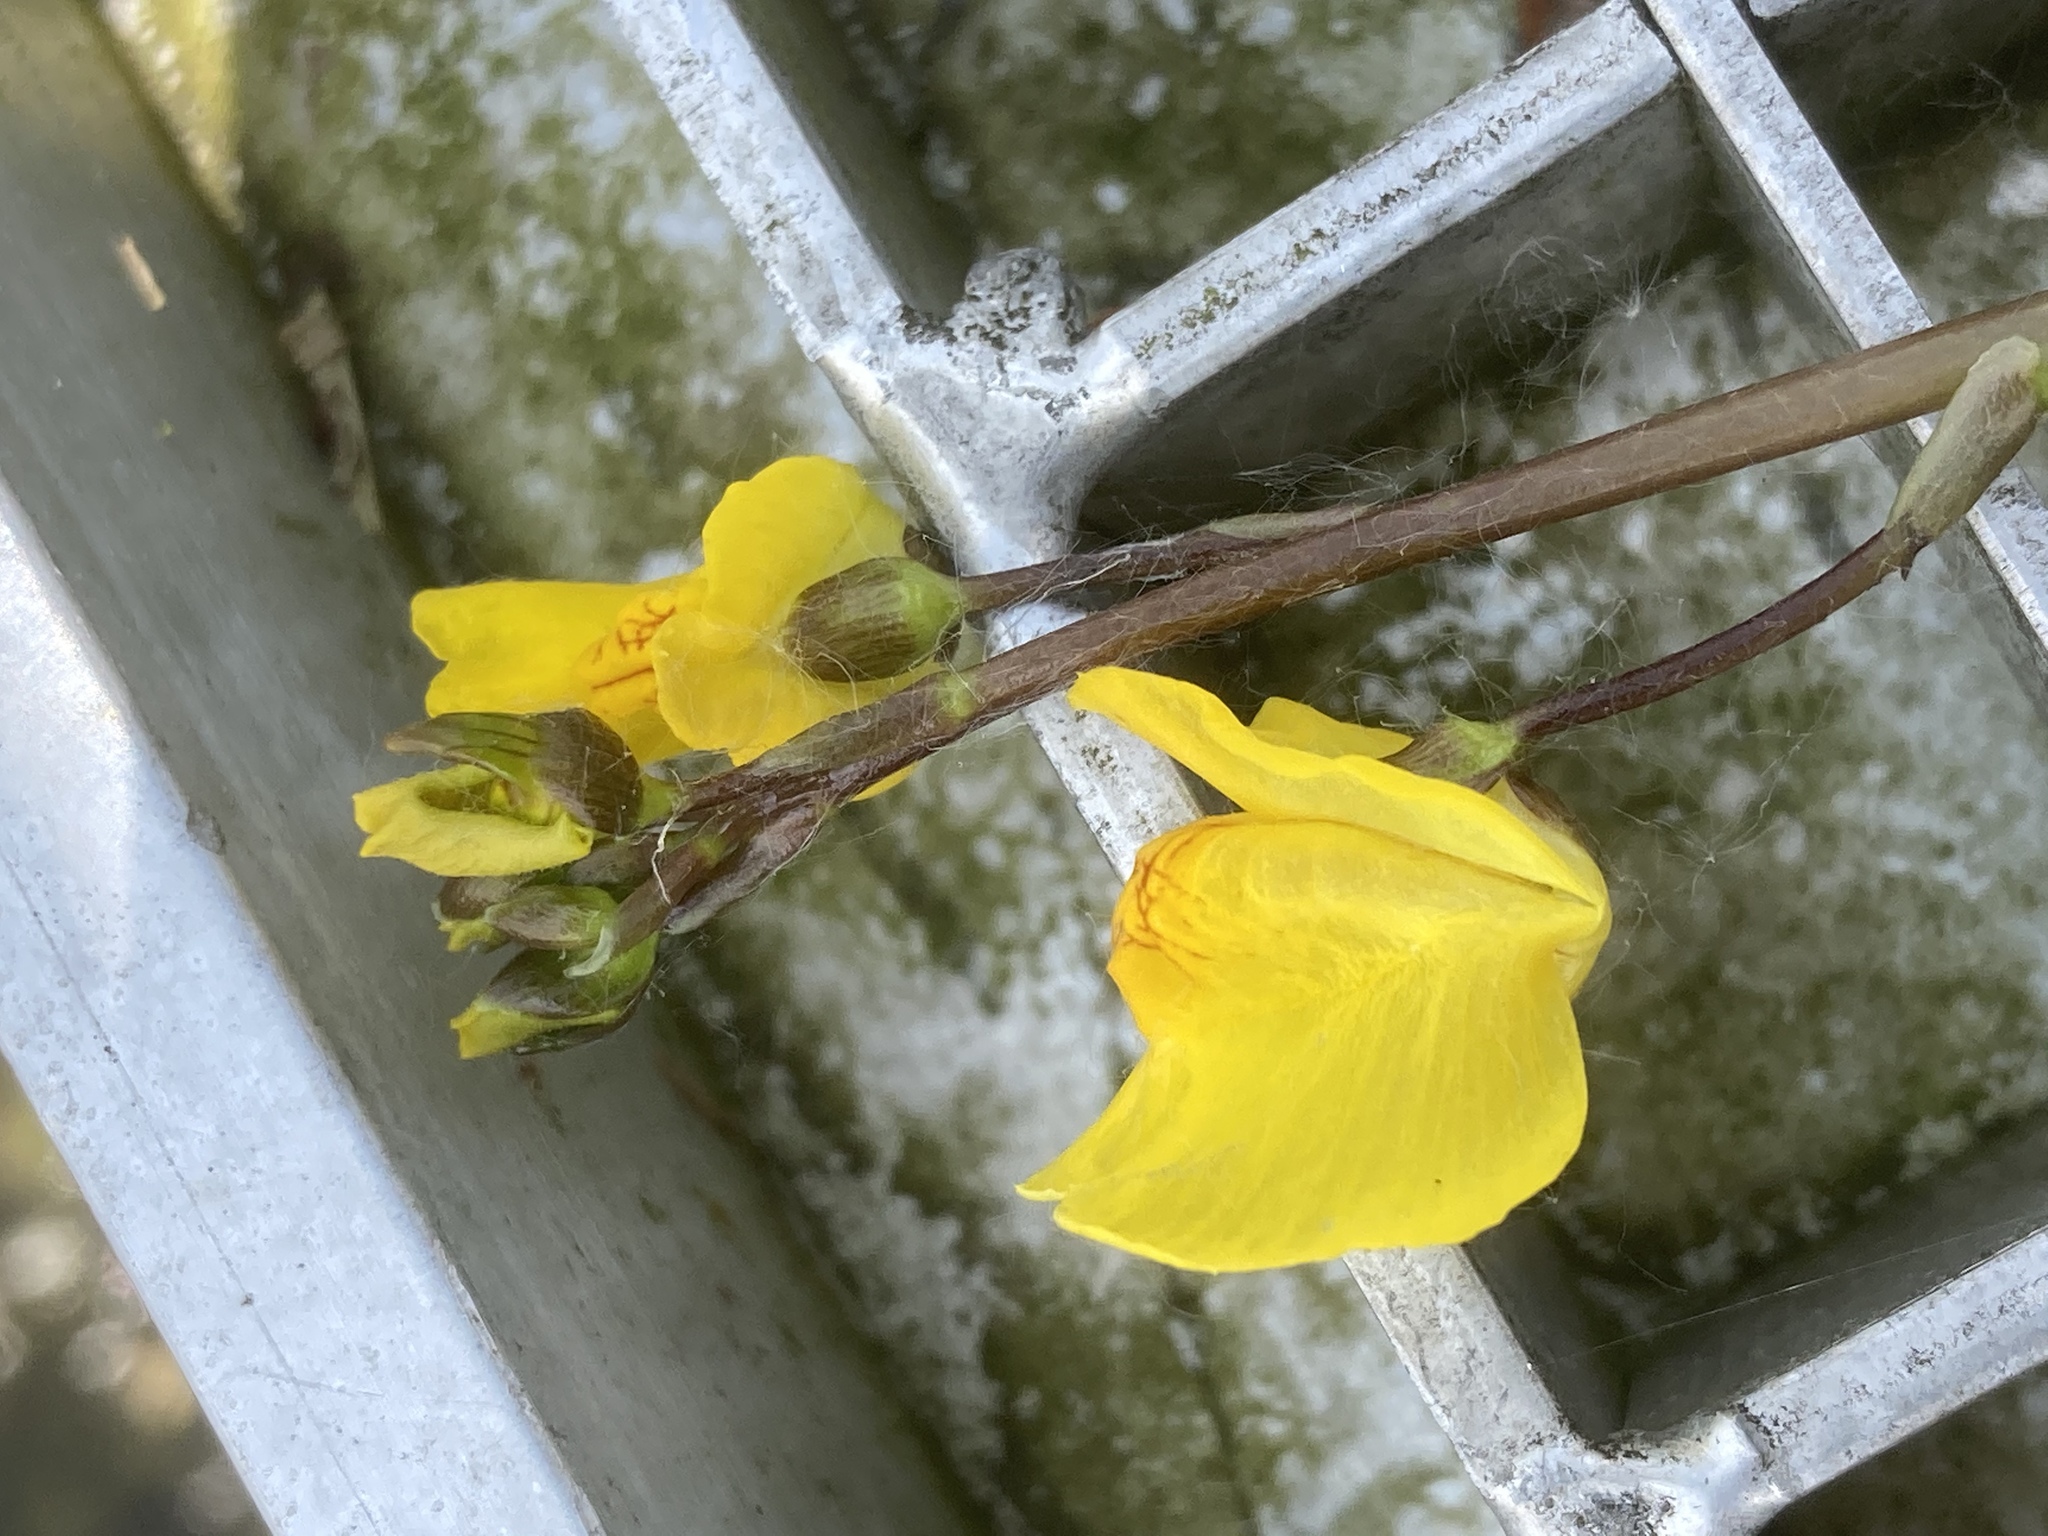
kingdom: Plantae
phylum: Tracheophyta
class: Magnoliopsida
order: Lamiales
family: Lentibulariaceae
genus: Utricularia
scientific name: Utricularia vulgaris
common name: Greater bladderwort
